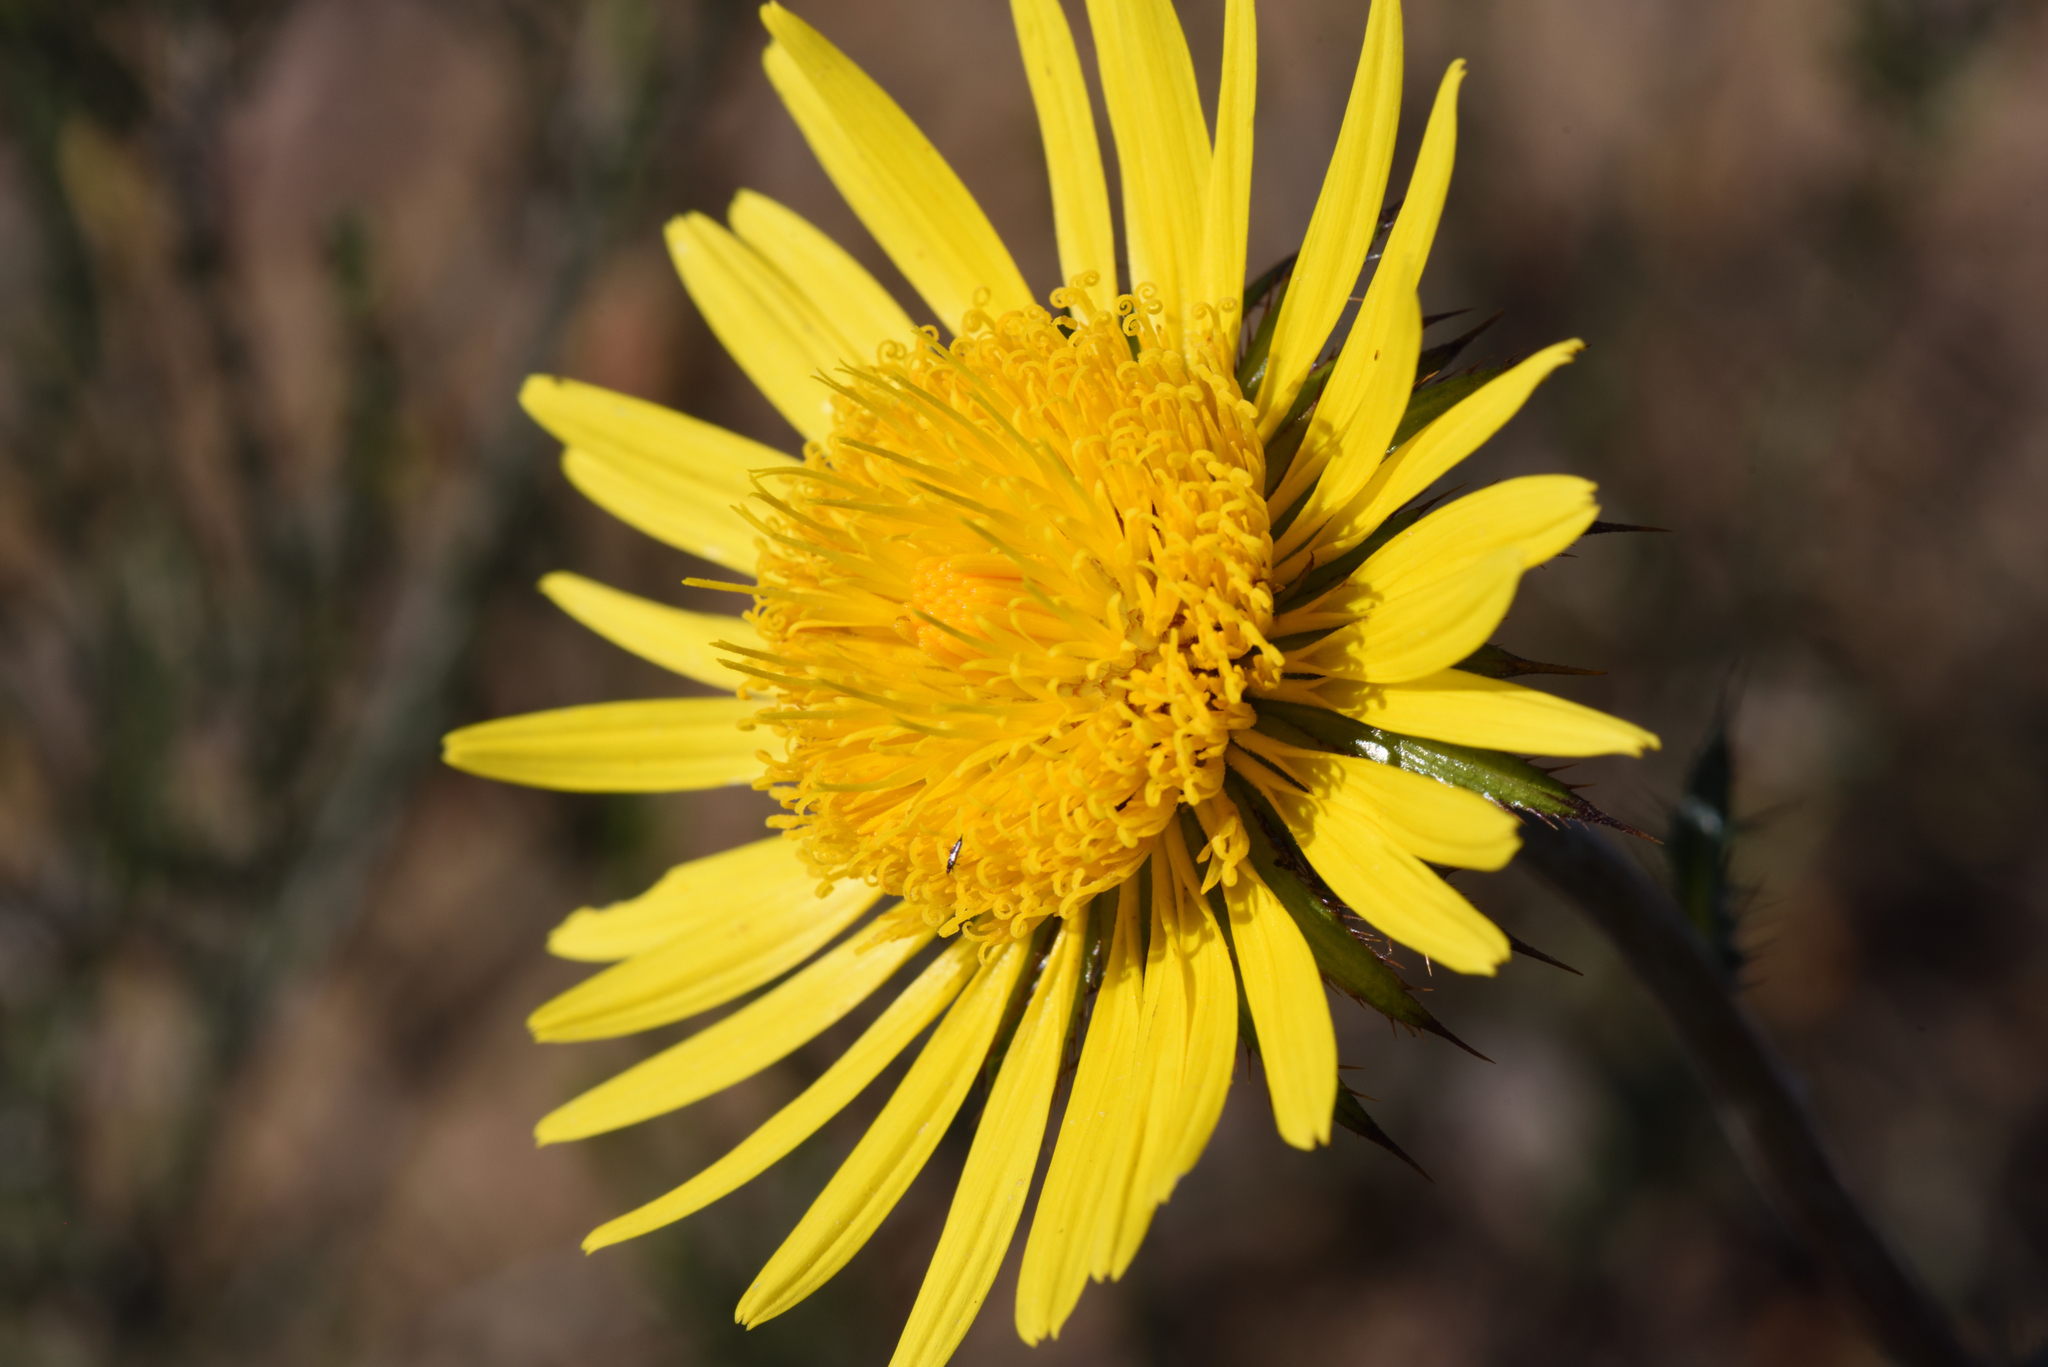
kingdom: Plantae
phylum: Tracheophyta
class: Magnoliopsida
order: Asterales
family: Asteraceae
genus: Berkheya
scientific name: Berkheya decurrens
